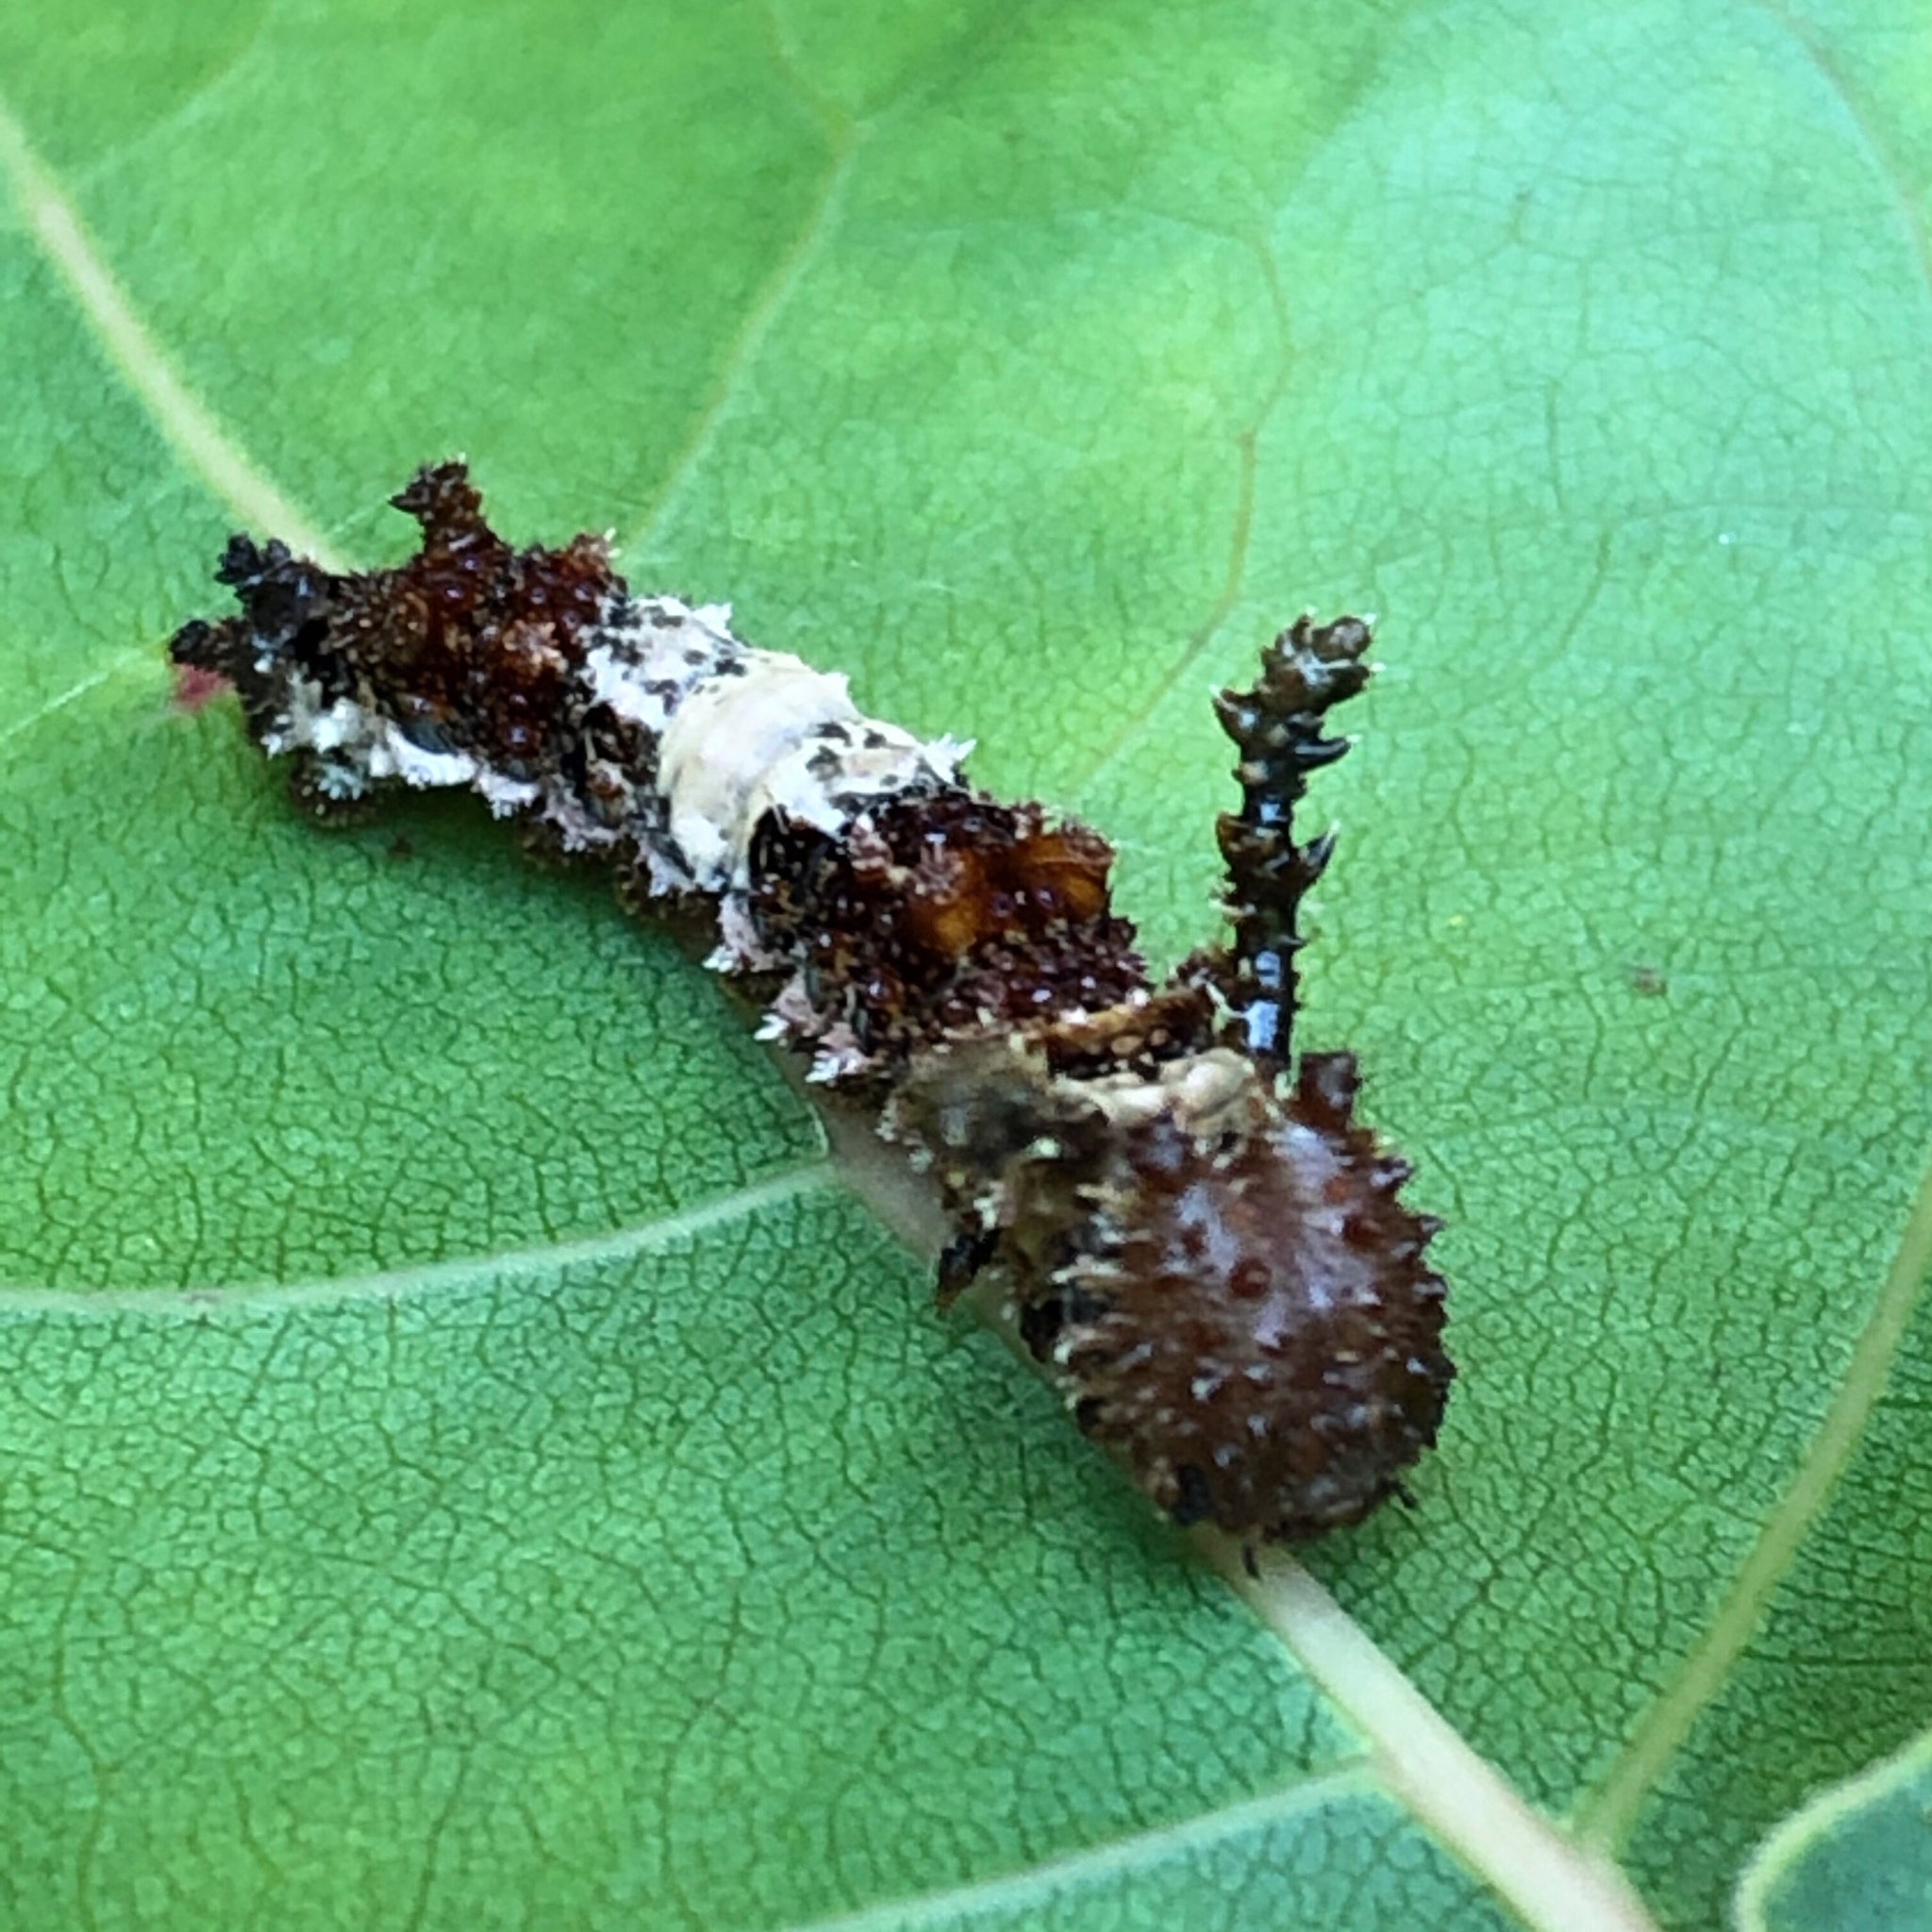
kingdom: Animalia
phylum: Arthropoda
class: Insecta
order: Lepidoptera
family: Nymphalidae
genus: Limenitis
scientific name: Limenitis archippus
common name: Viceroy
